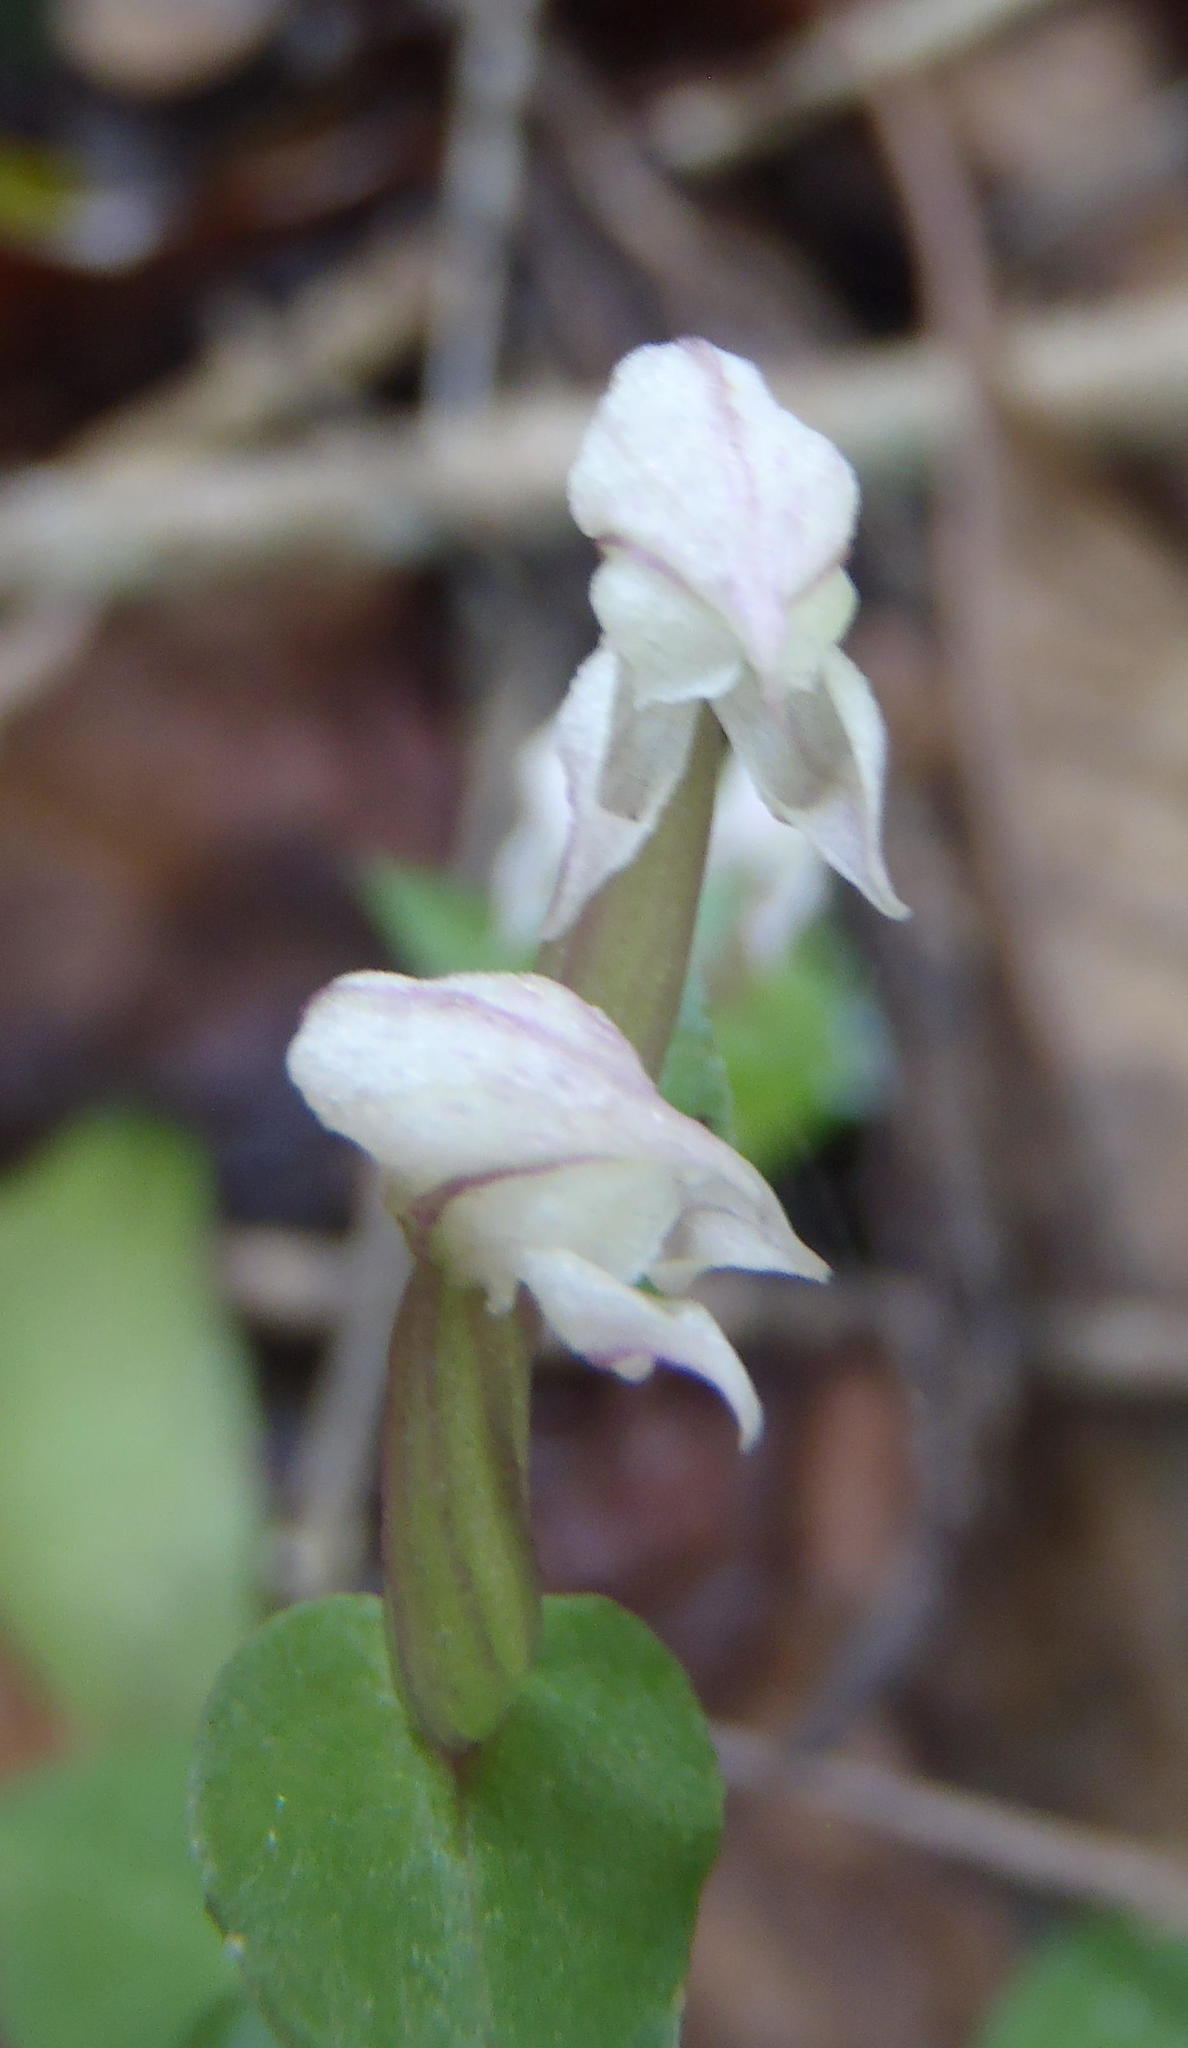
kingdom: Plantae
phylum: Tracheophyta
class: Liliopsida
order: Asparagales
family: Orchidaceae
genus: Disperis
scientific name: Disperis micrantha
